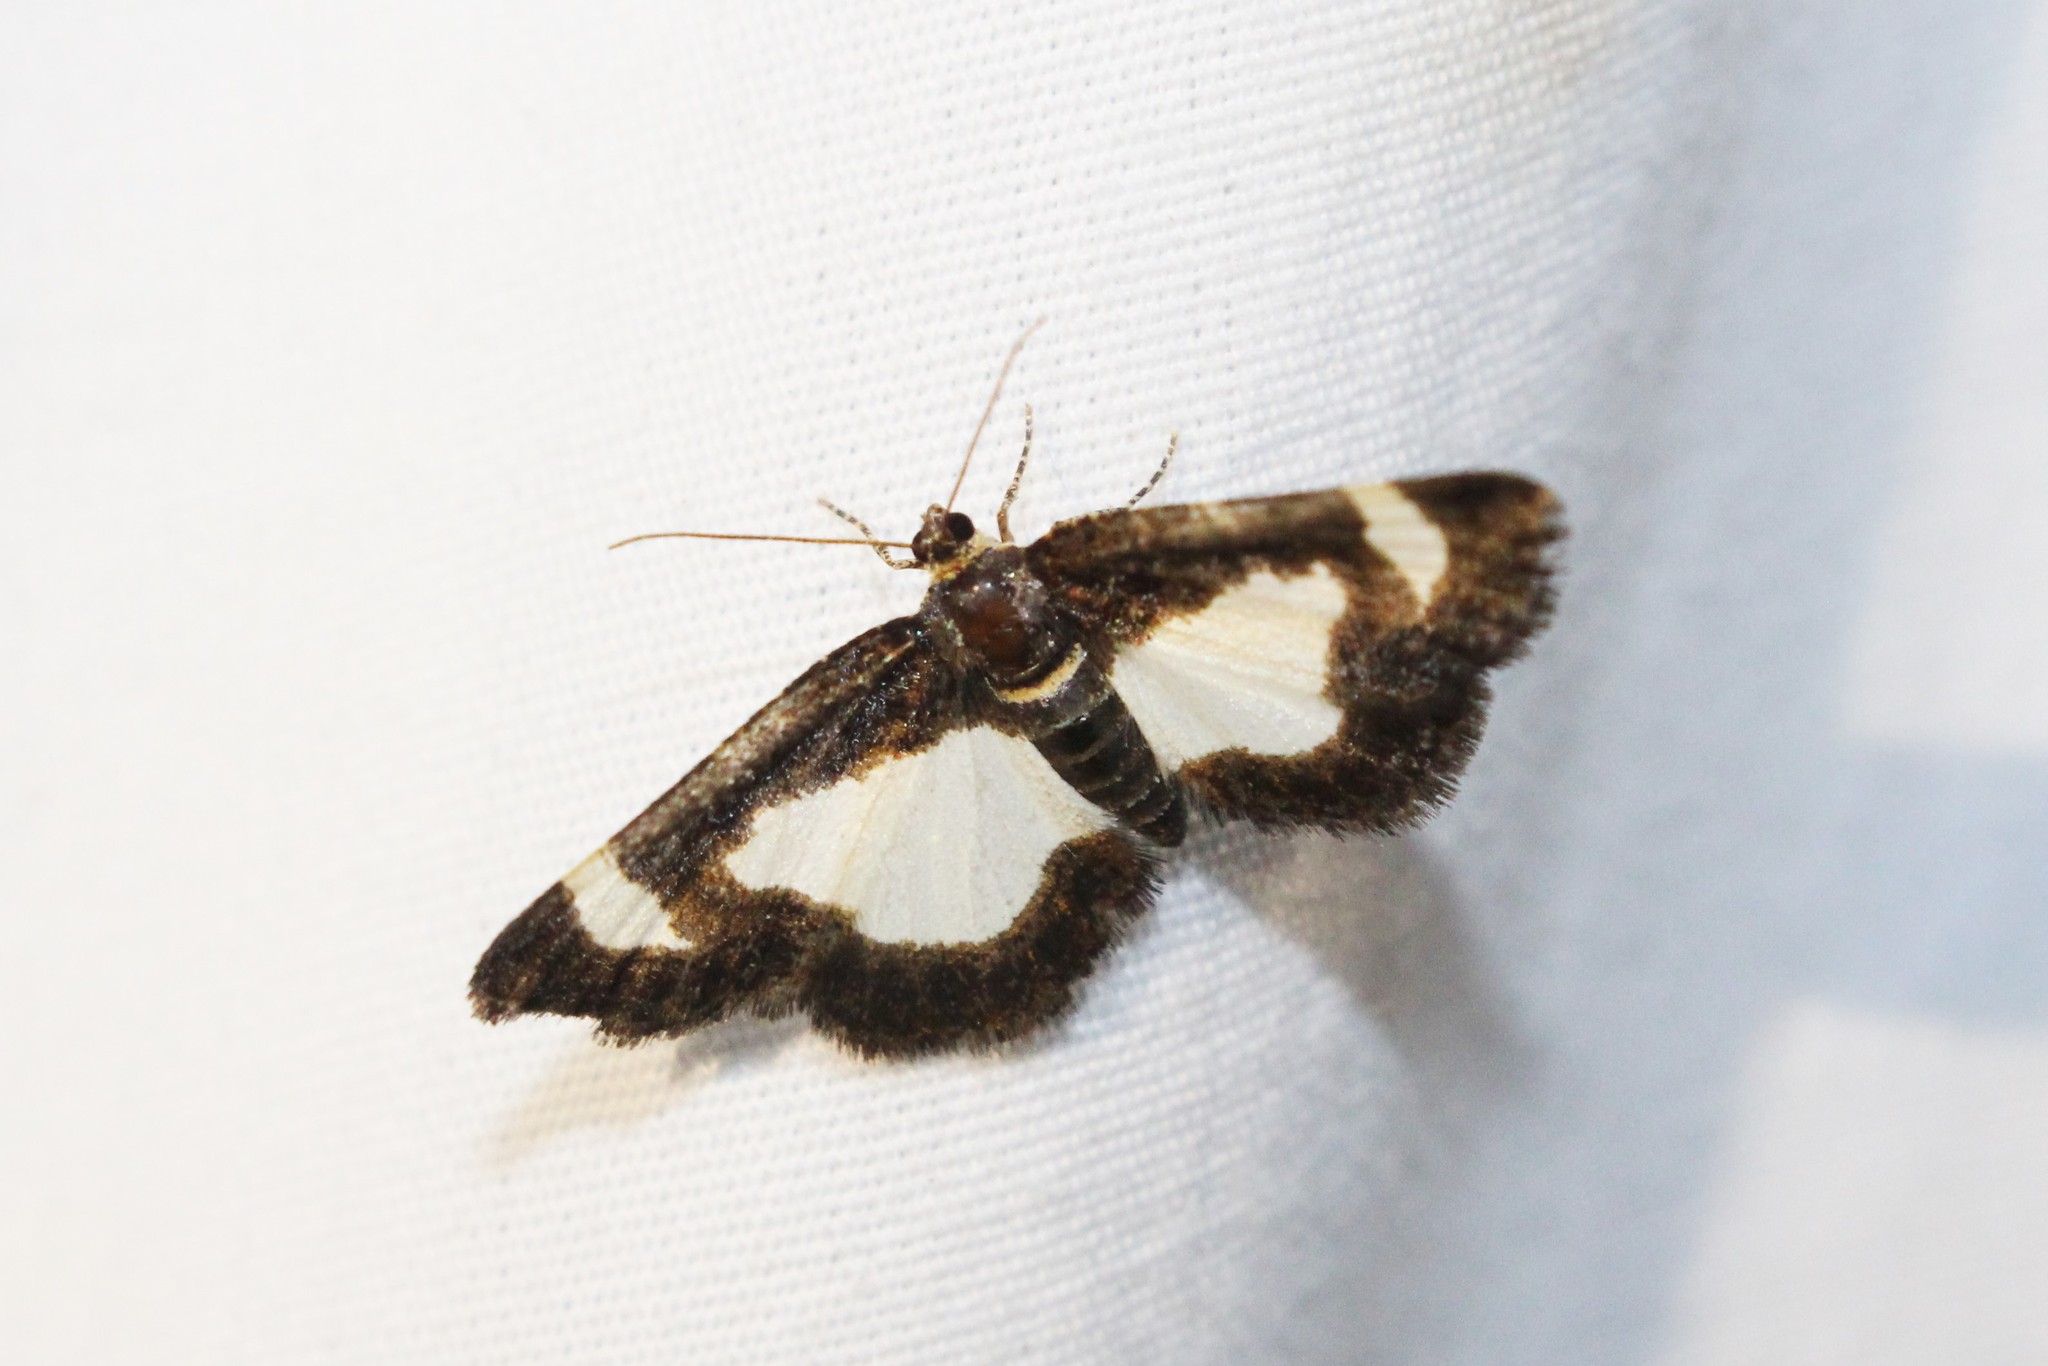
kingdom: Animalia
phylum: Arthropoda
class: Insecta
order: Lepidoptera
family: Geometridae
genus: Heliomata
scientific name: Heliomata cycladata
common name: Common spring moth
